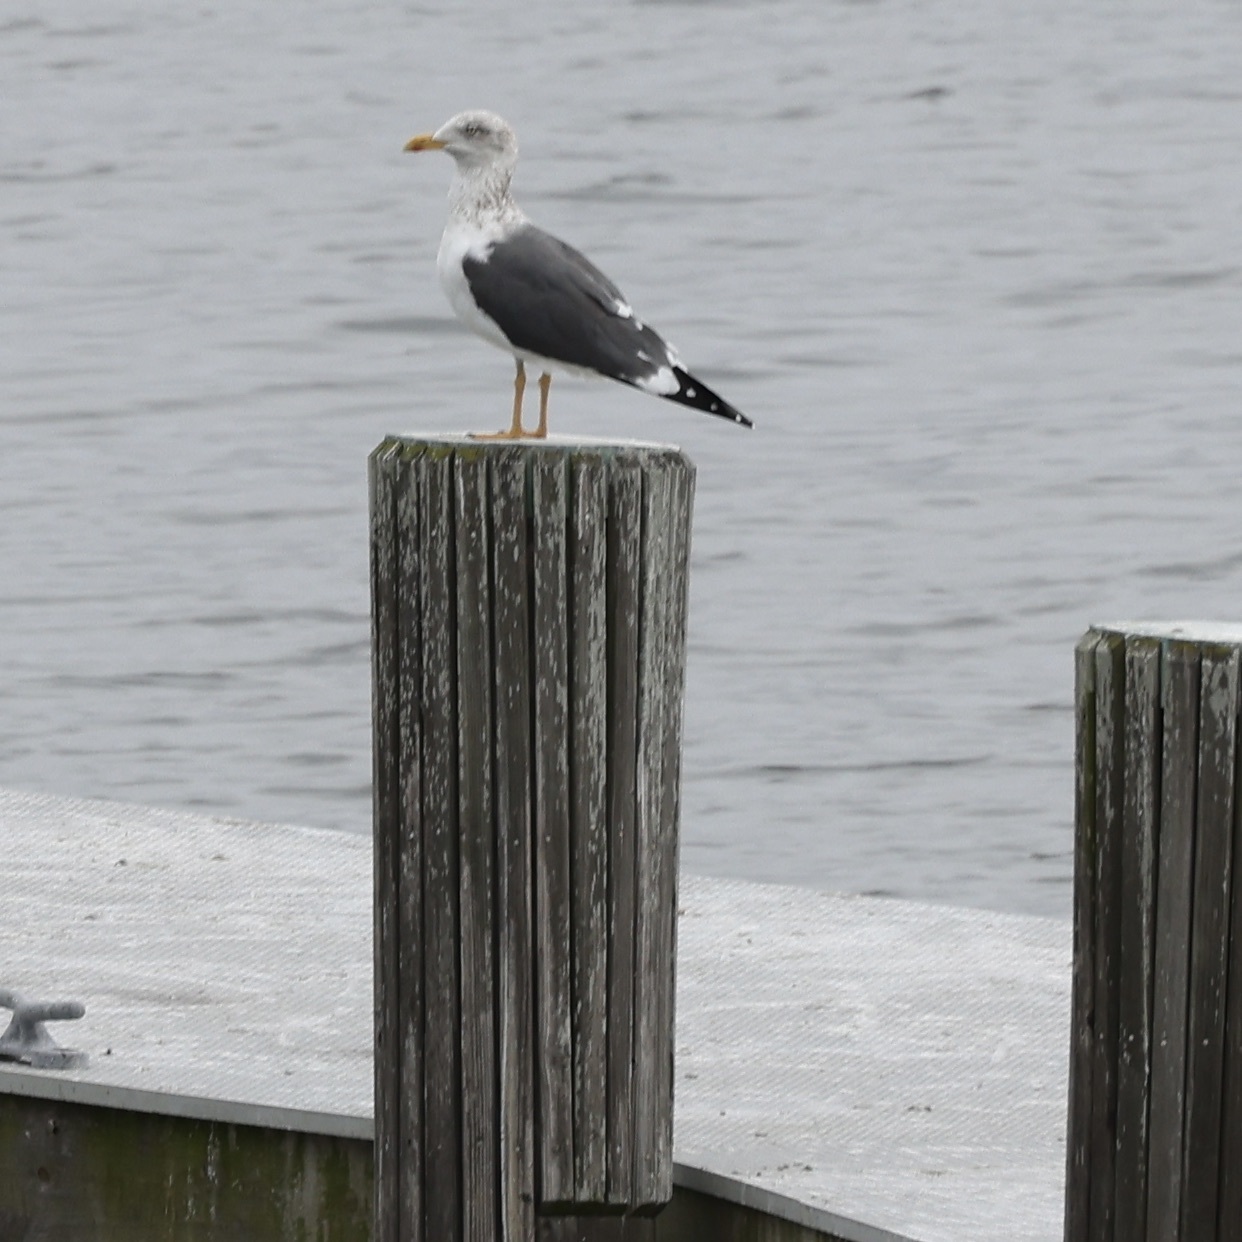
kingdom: Animalia
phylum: Chordata
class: Aves
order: Charadriiformes
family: Laridae
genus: Larus
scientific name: Larus fuscus
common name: Lesser black-backed gull
